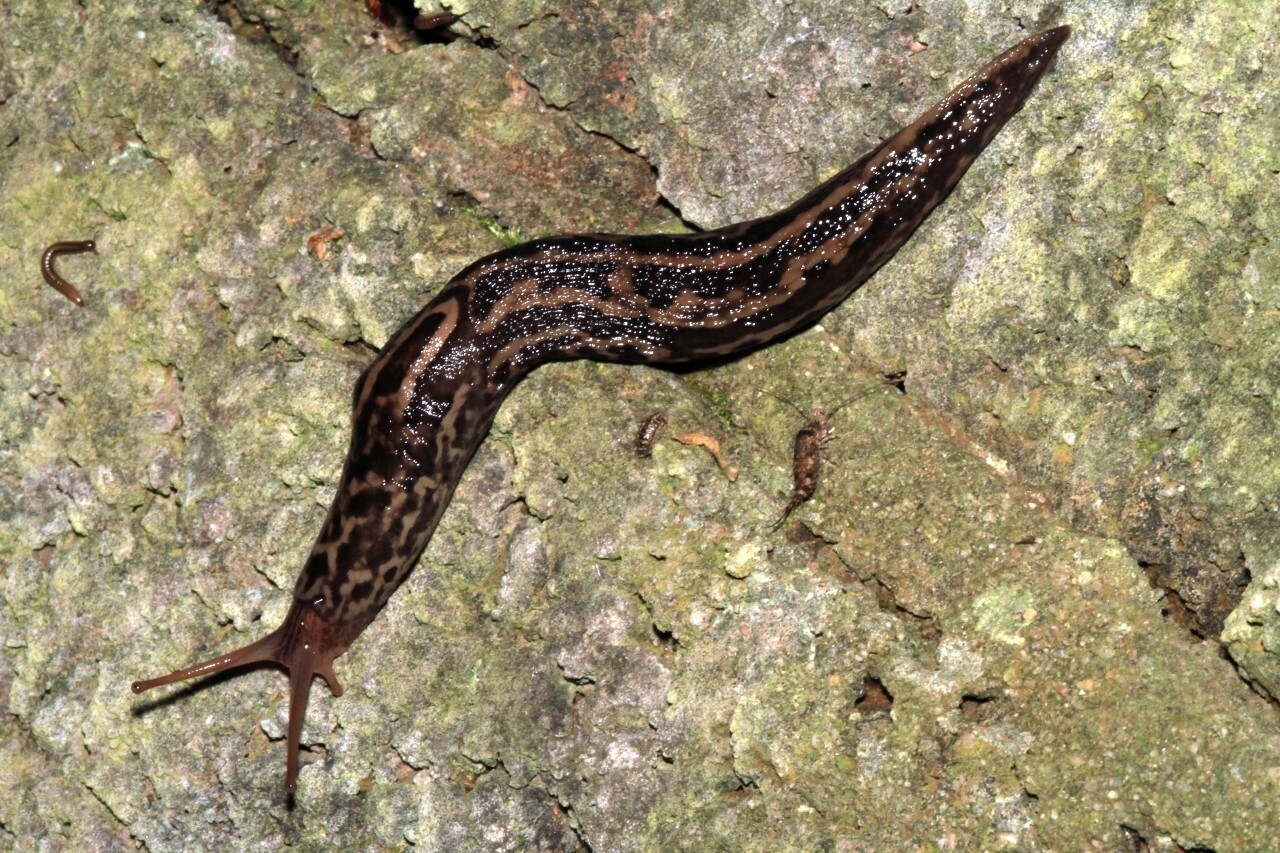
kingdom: Animalia
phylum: Mollusca
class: Gastropoda
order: Stylommatophora
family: Limacidae
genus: Limax
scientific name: Limax maximus
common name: Great grey slug
